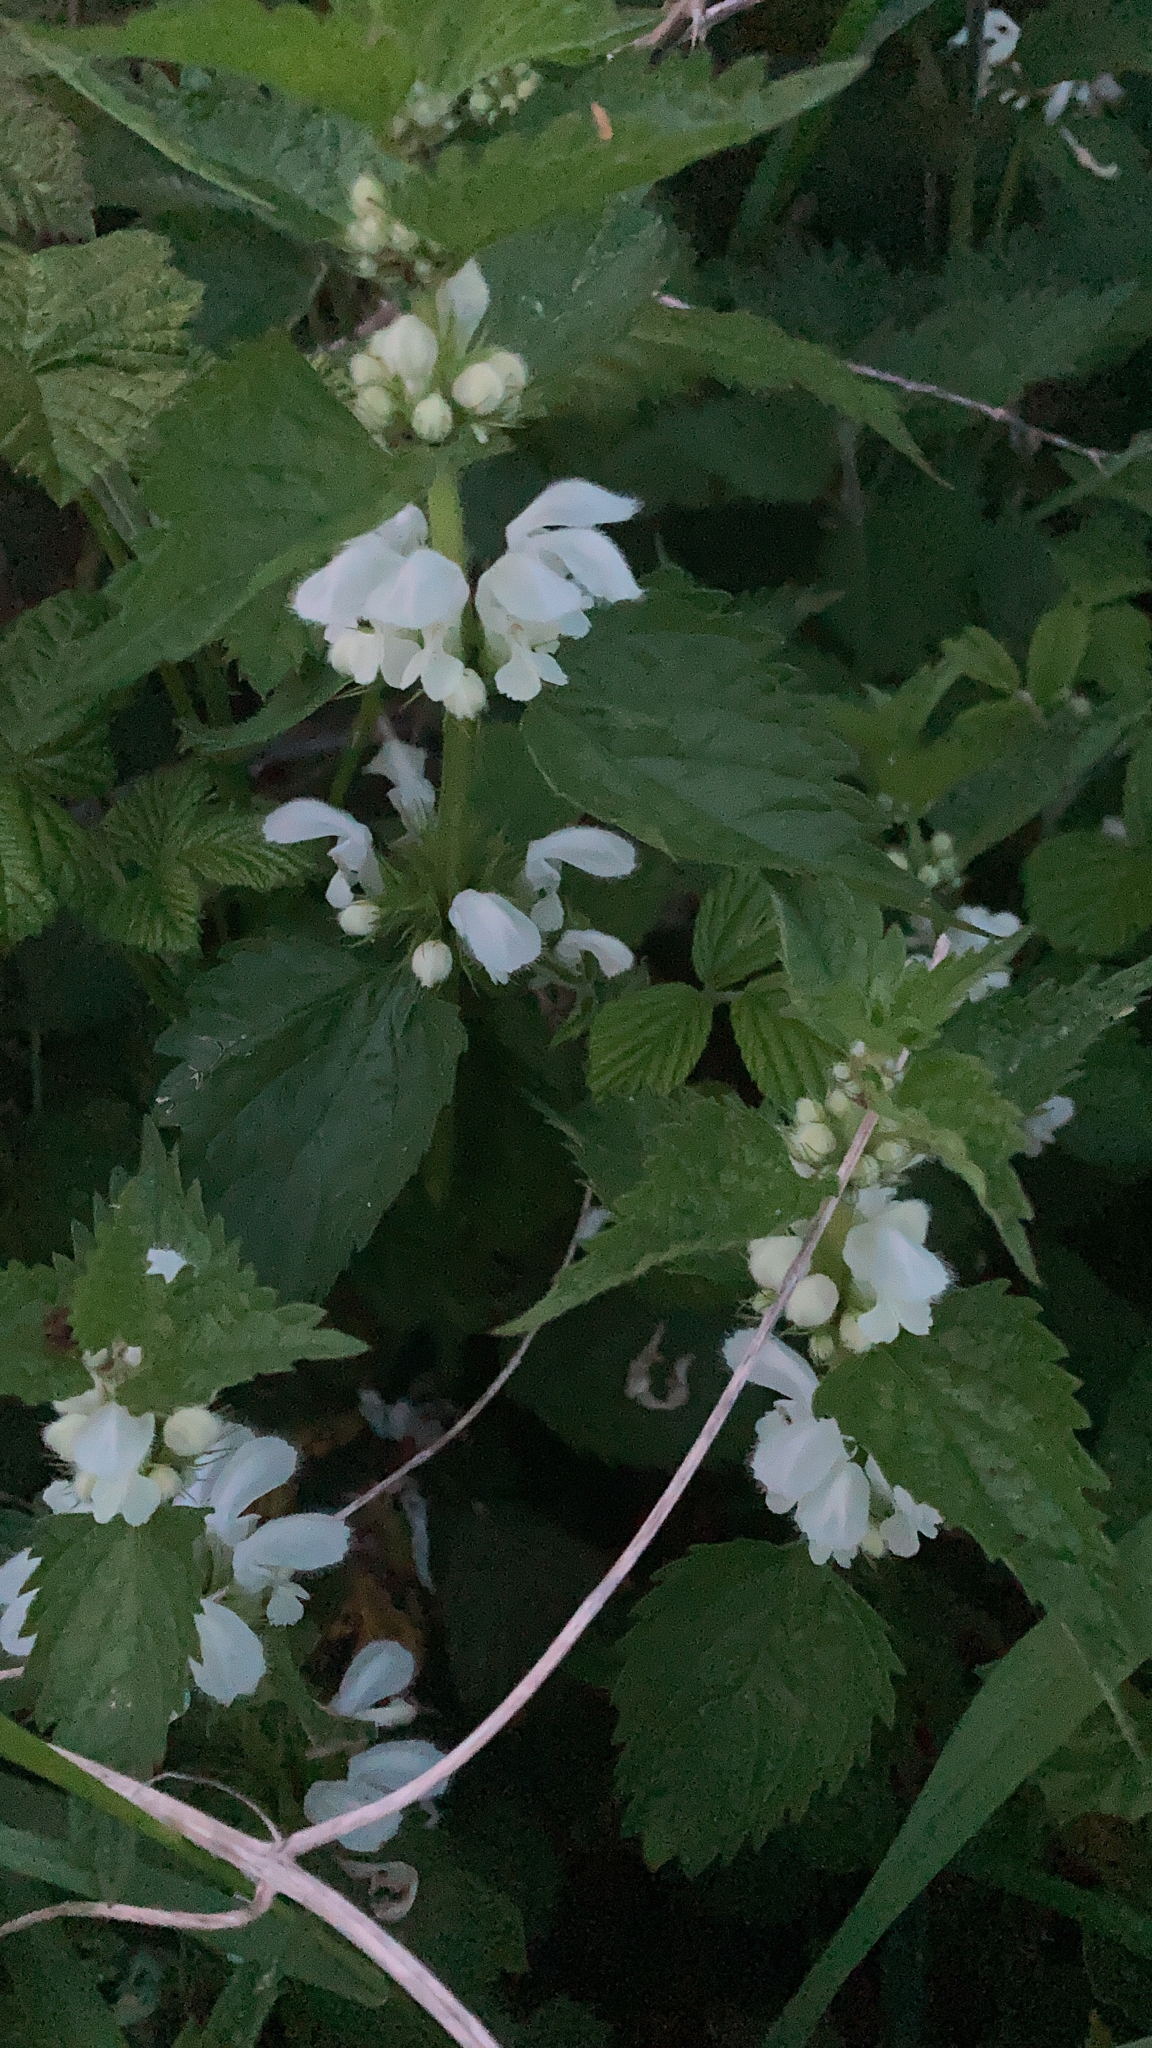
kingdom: Plantae
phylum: Tracheophyta
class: Magnoliopsida
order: Lamiales
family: Lamiaceae
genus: Lamium
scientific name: Lamium album
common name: White dead-nettle
